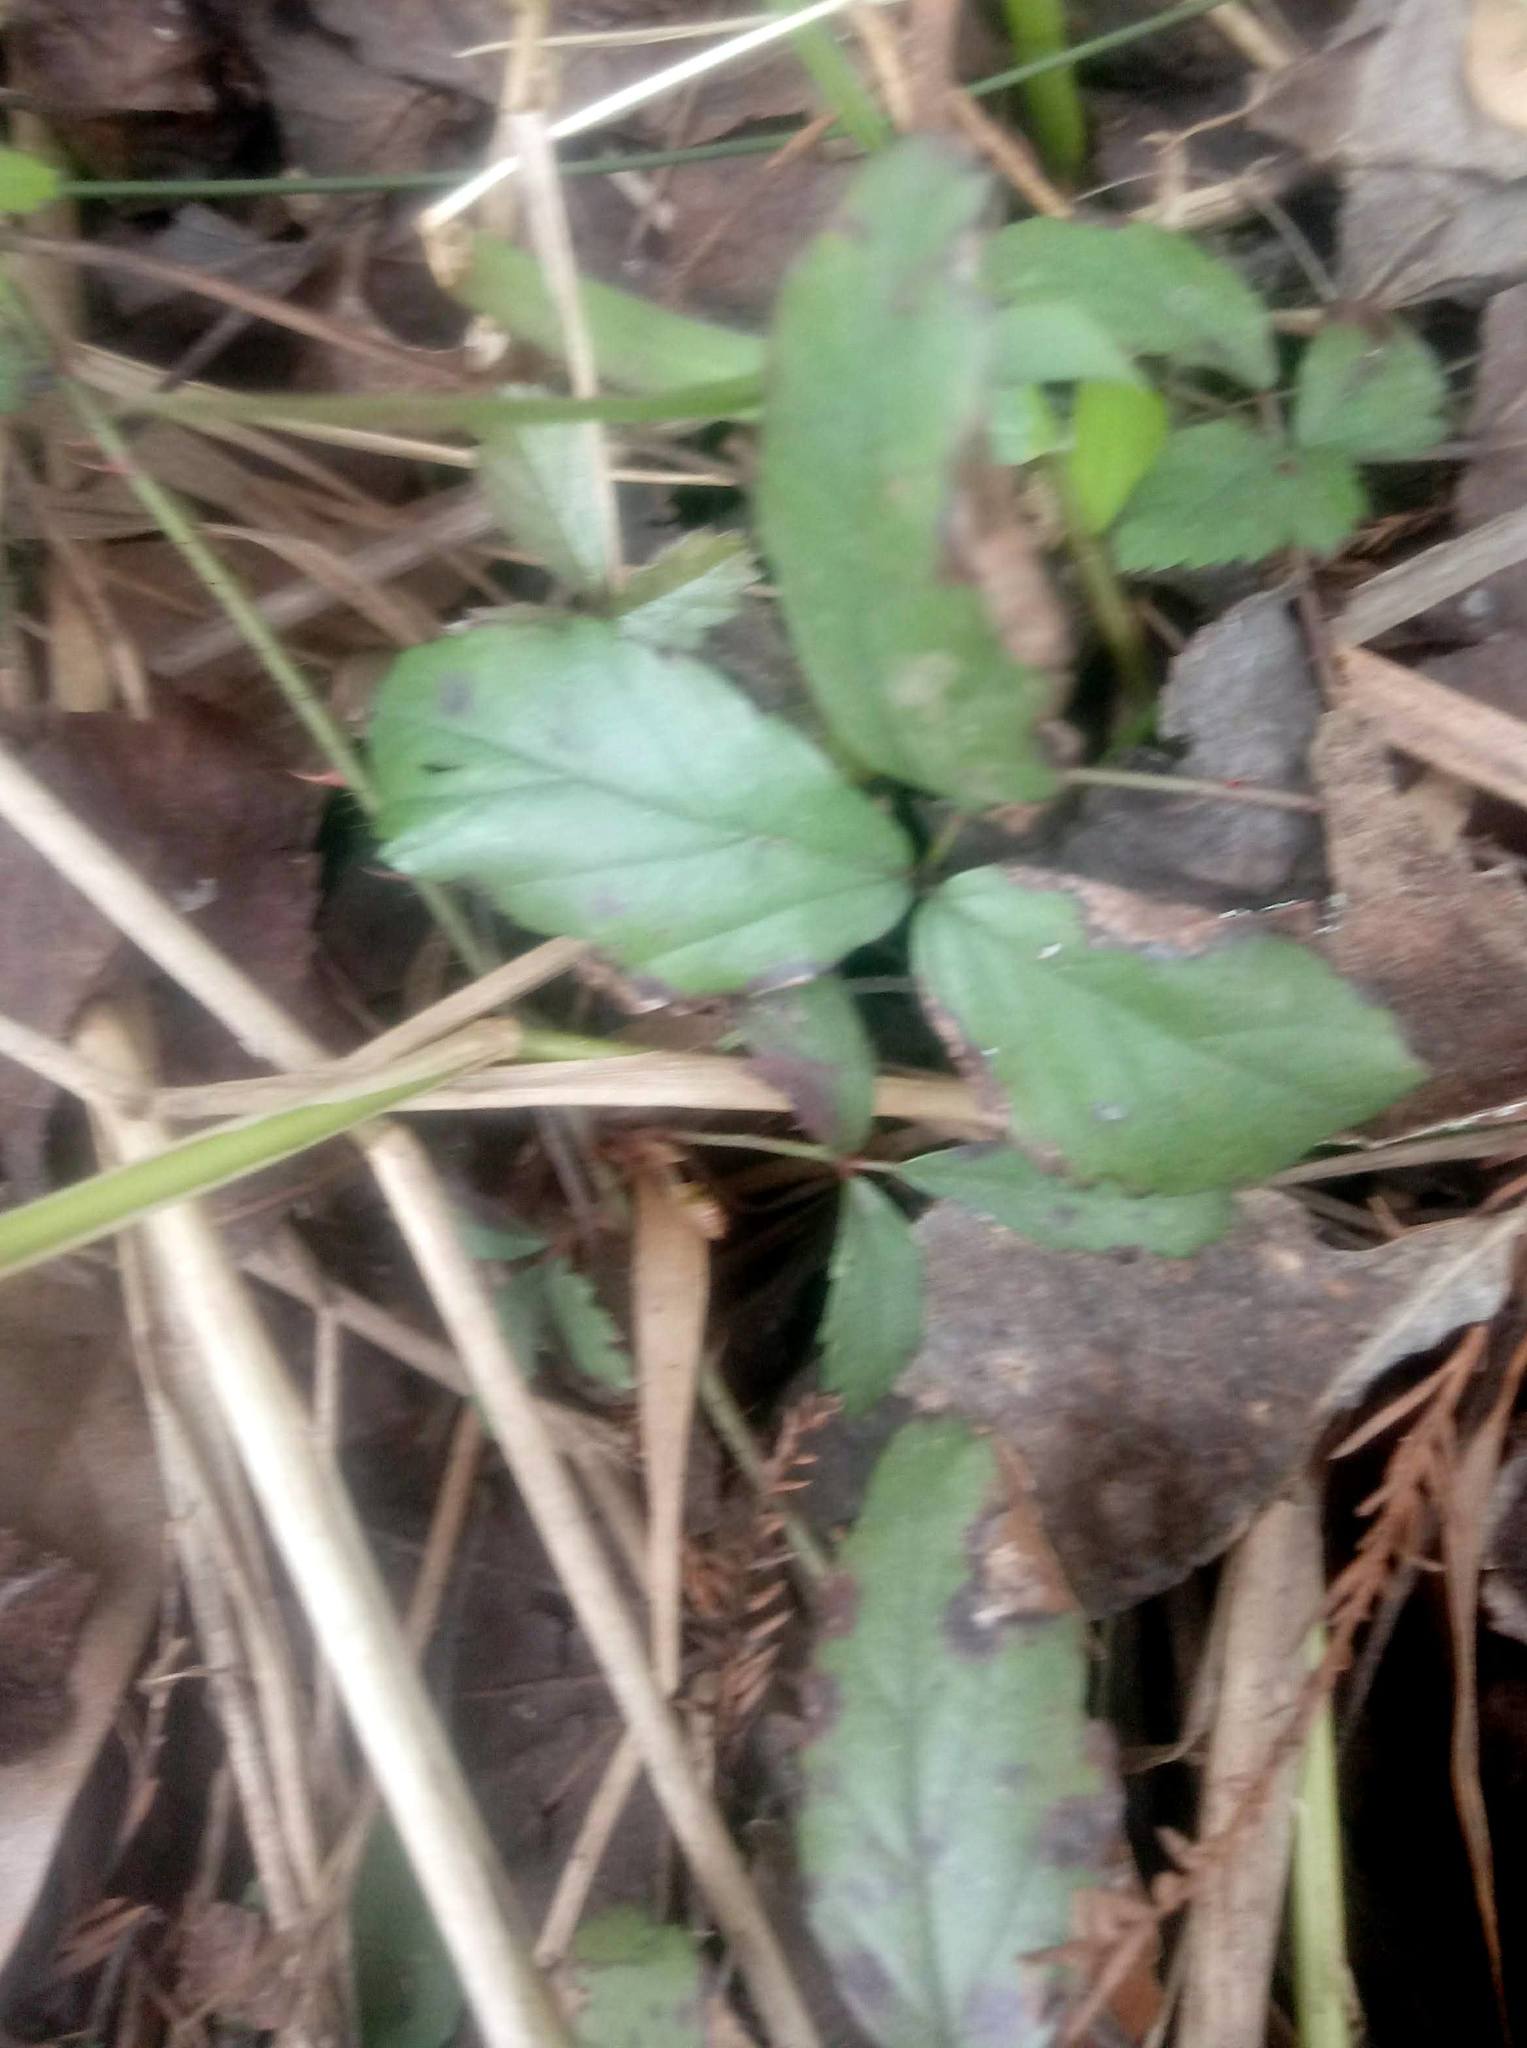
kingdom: Plantae
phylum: Tracheophyta
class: Magnoliopsida
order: Rosales
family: Rosaceae
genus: Rubus
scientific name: Rubus trivialis
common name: Southern dewberry
